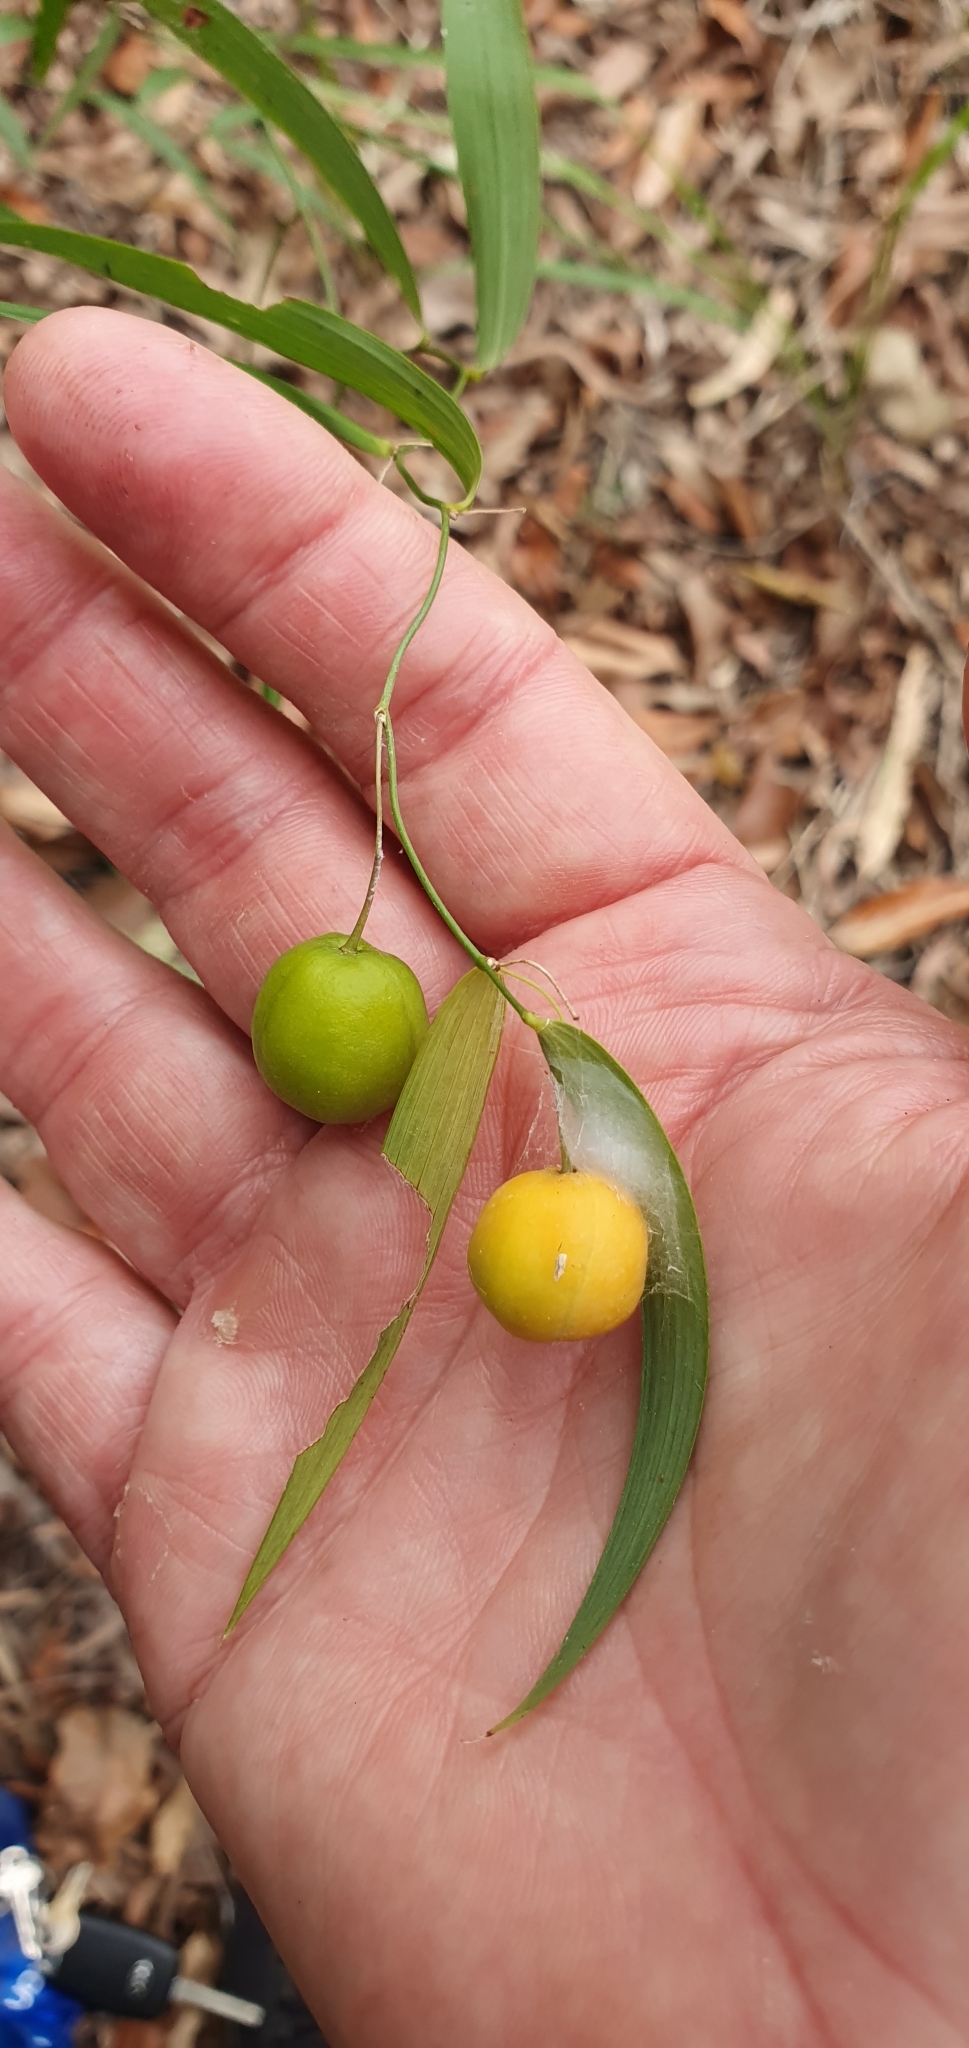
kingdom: Plantae
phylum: Tracheophyta
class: Liliopsida
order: Asparagales
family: Asparagaceae
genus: Eustrephus
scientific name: Eustrephus latifolius
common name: Orangevine
